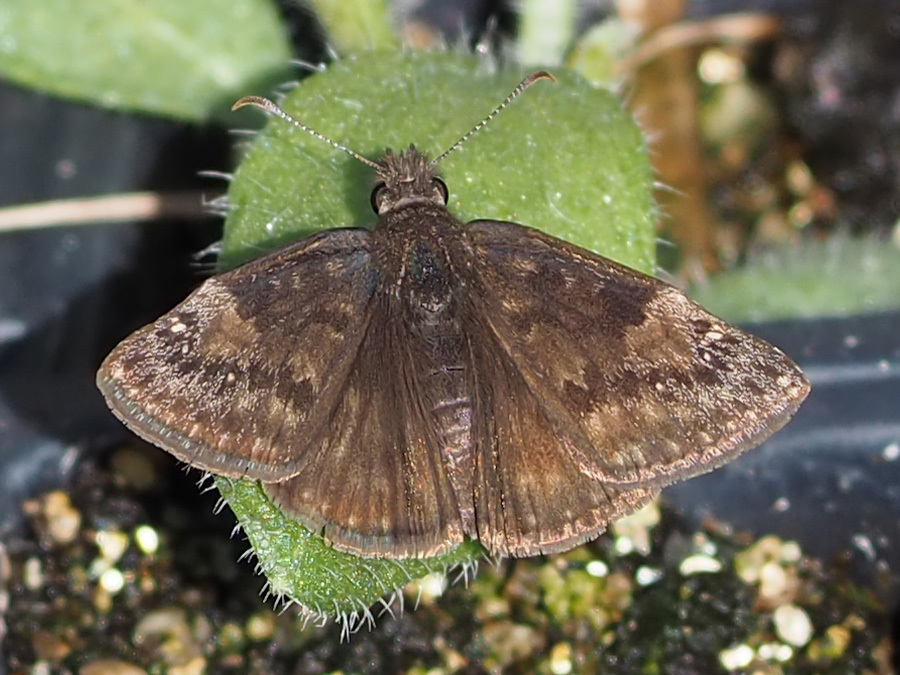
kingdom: Animalia
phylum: Arthropoda
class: Insecta
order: Lepidoptera
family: Hesperiidae
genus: Erynnis
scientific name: Erynnis baptisiae
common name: Wild indigo duskywing
